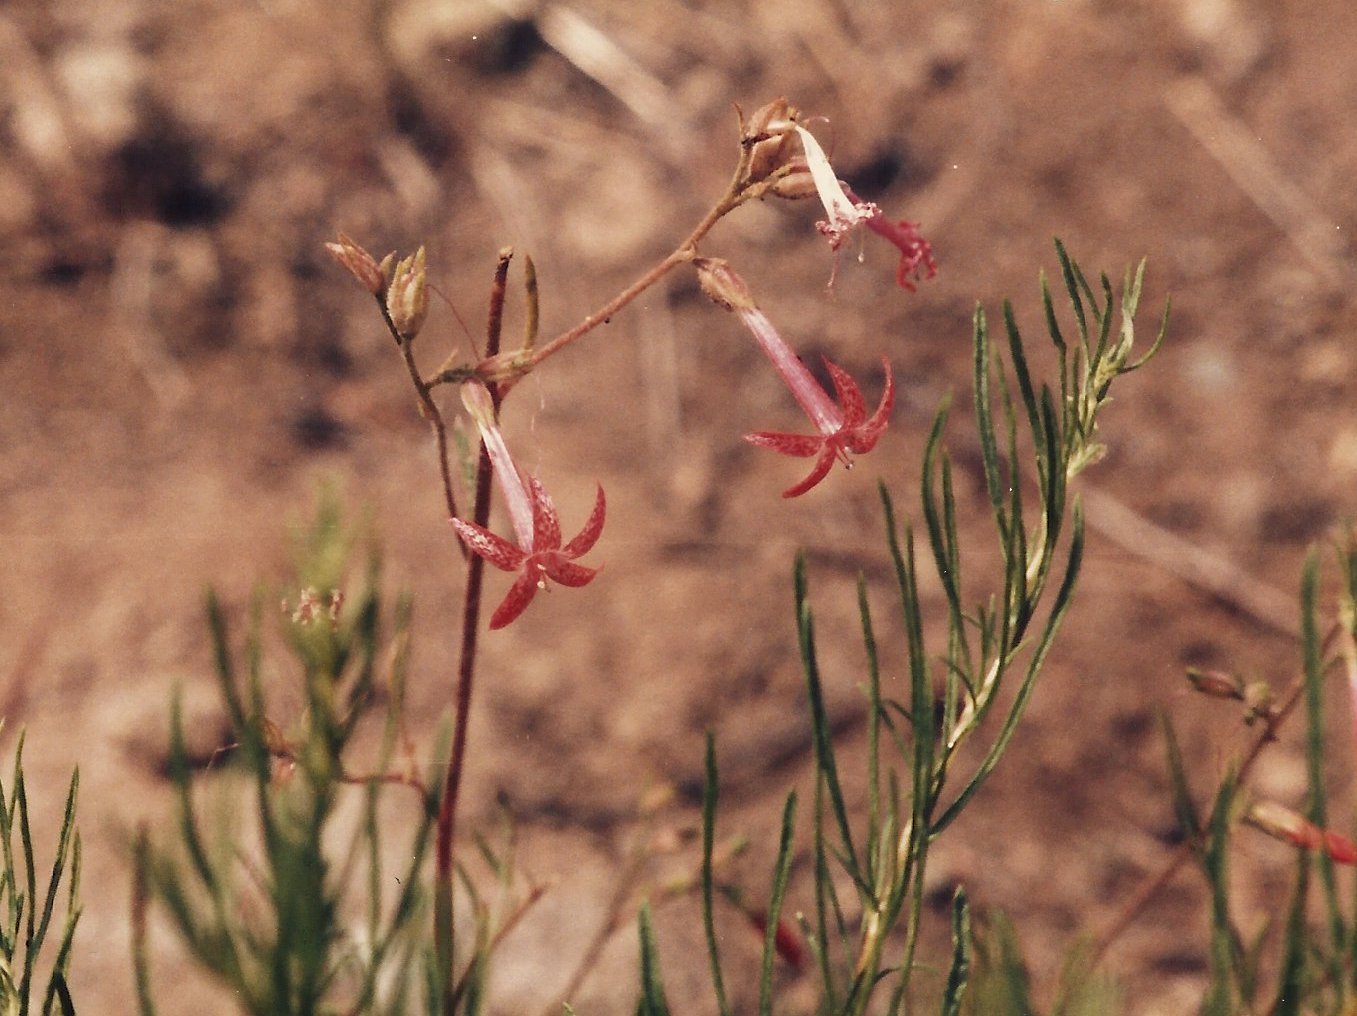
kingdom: Plantae
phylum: Tracheophyta
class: Magnoliopsida
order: Ericales
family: Polemoniaceae
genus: Ipomopsis
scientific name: Ipomopsis aggregata
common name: Scarlet gilia
